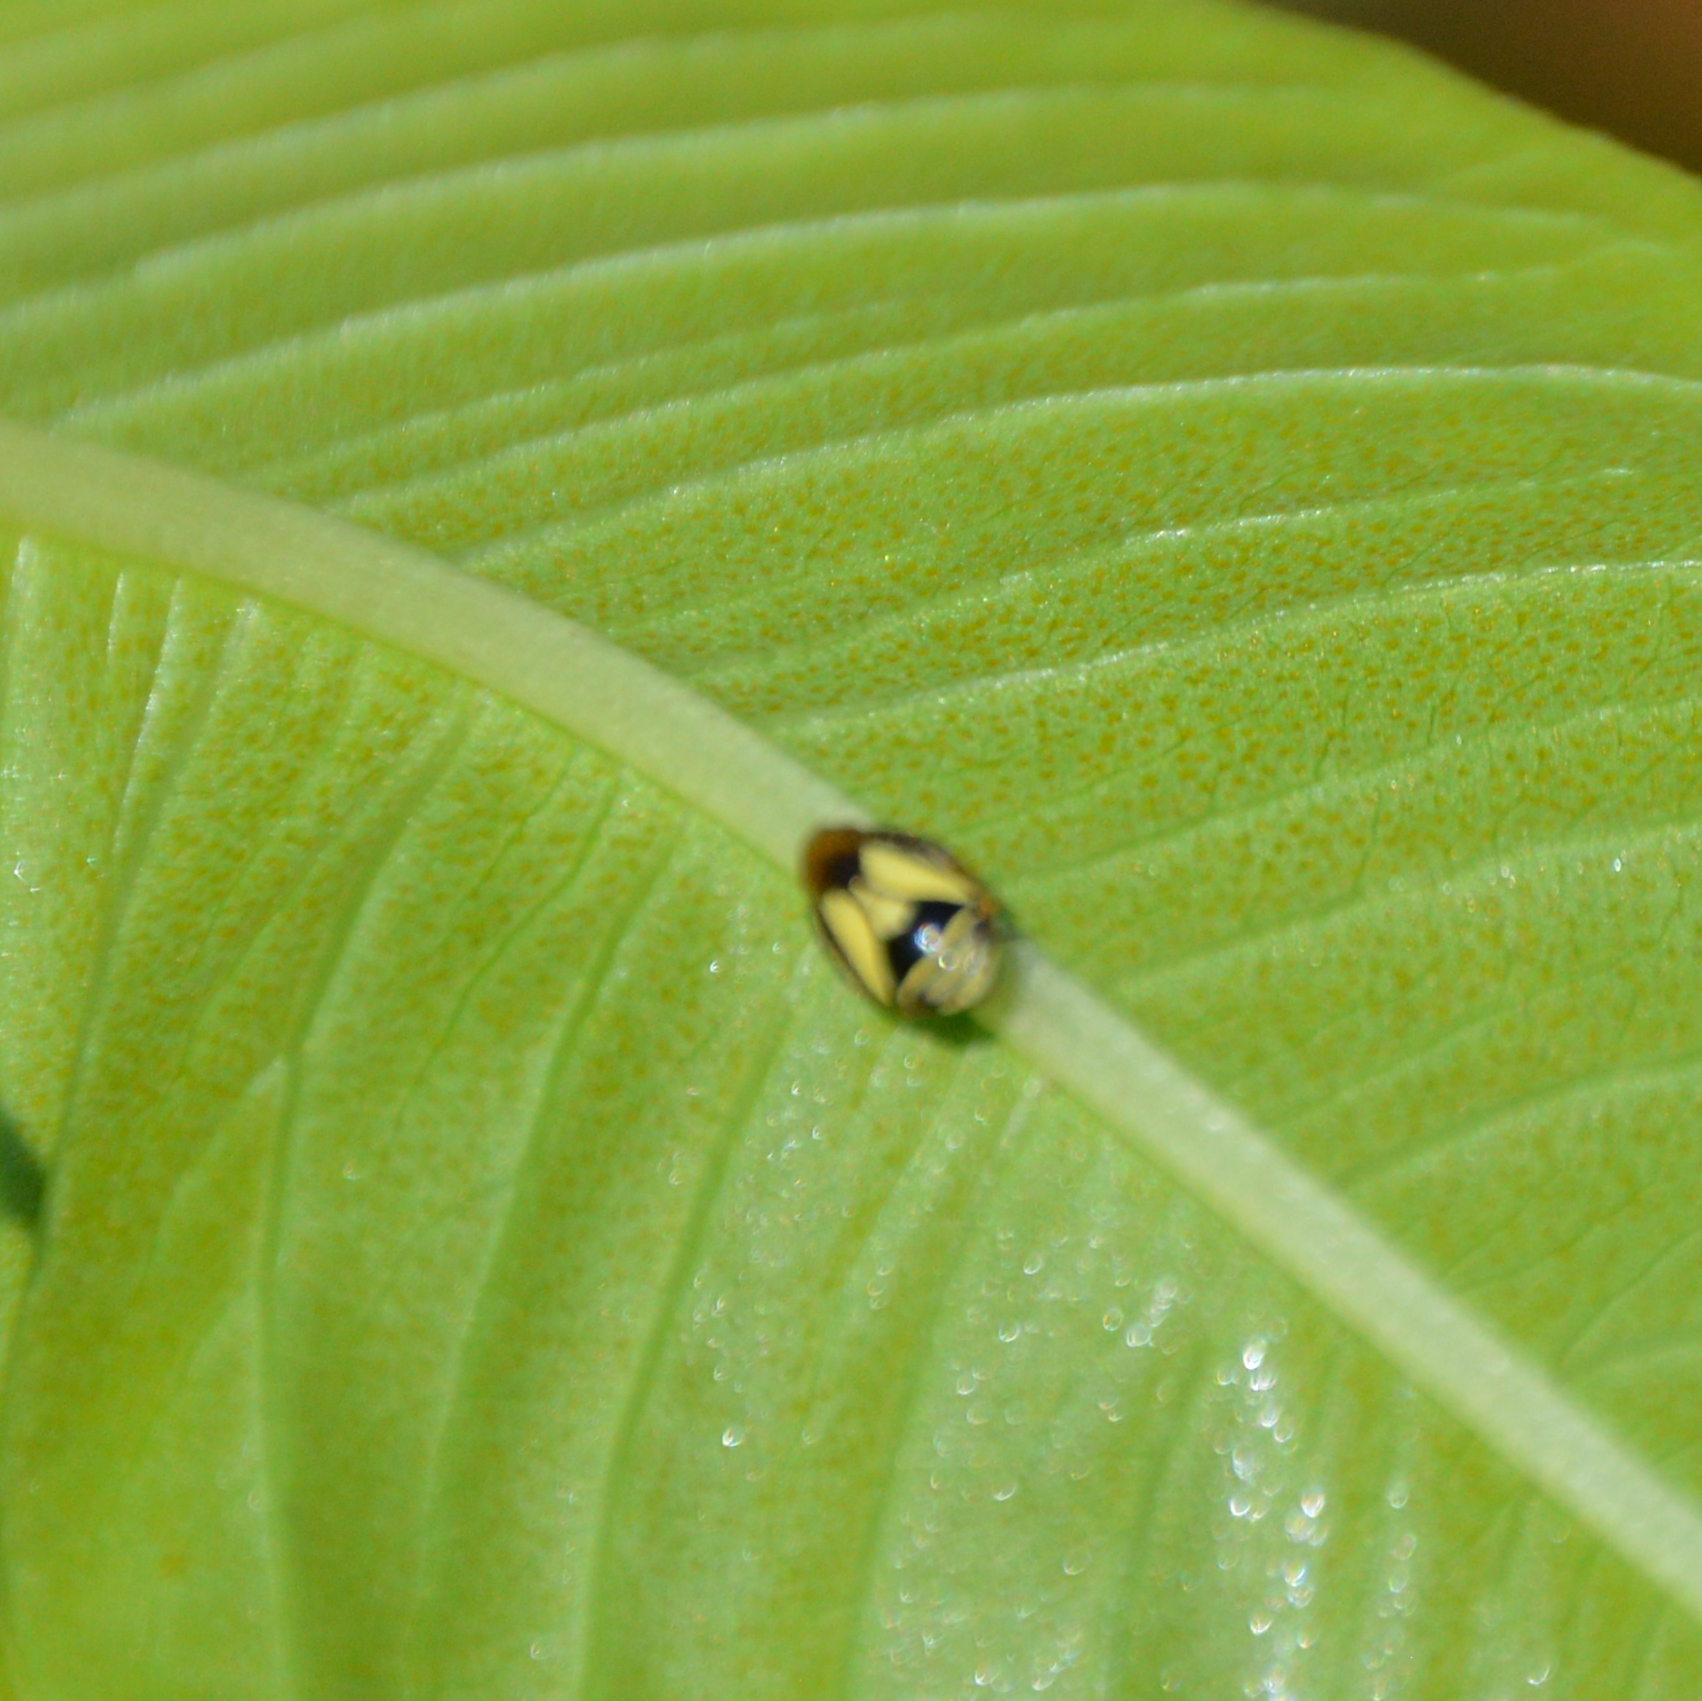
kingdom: Animalia
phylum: Arthropoda
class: Insecta
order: Hemiptera
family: Clastopteridae
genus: Clastoptera
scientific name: Clastoptera proteus
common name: Dogwood spittlebug
